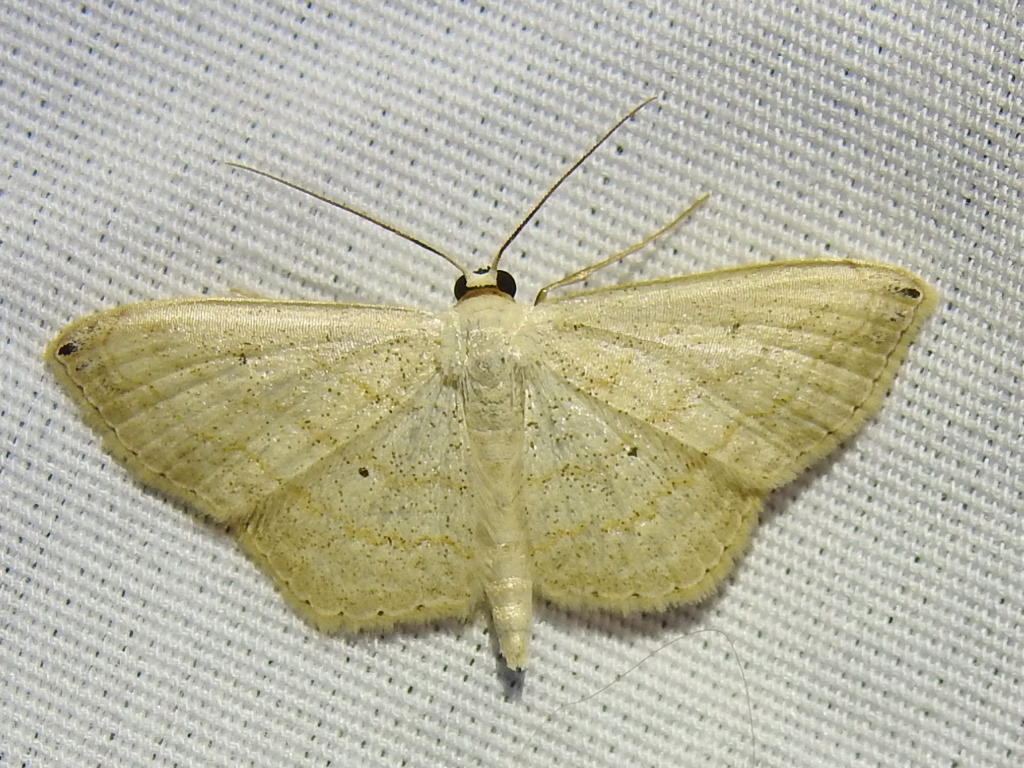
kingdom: Animalia
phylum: Arthropoda
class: Insecta
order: Lepidoptera
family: Geometridae
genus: Scopula
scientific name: Scopula umbilicata
